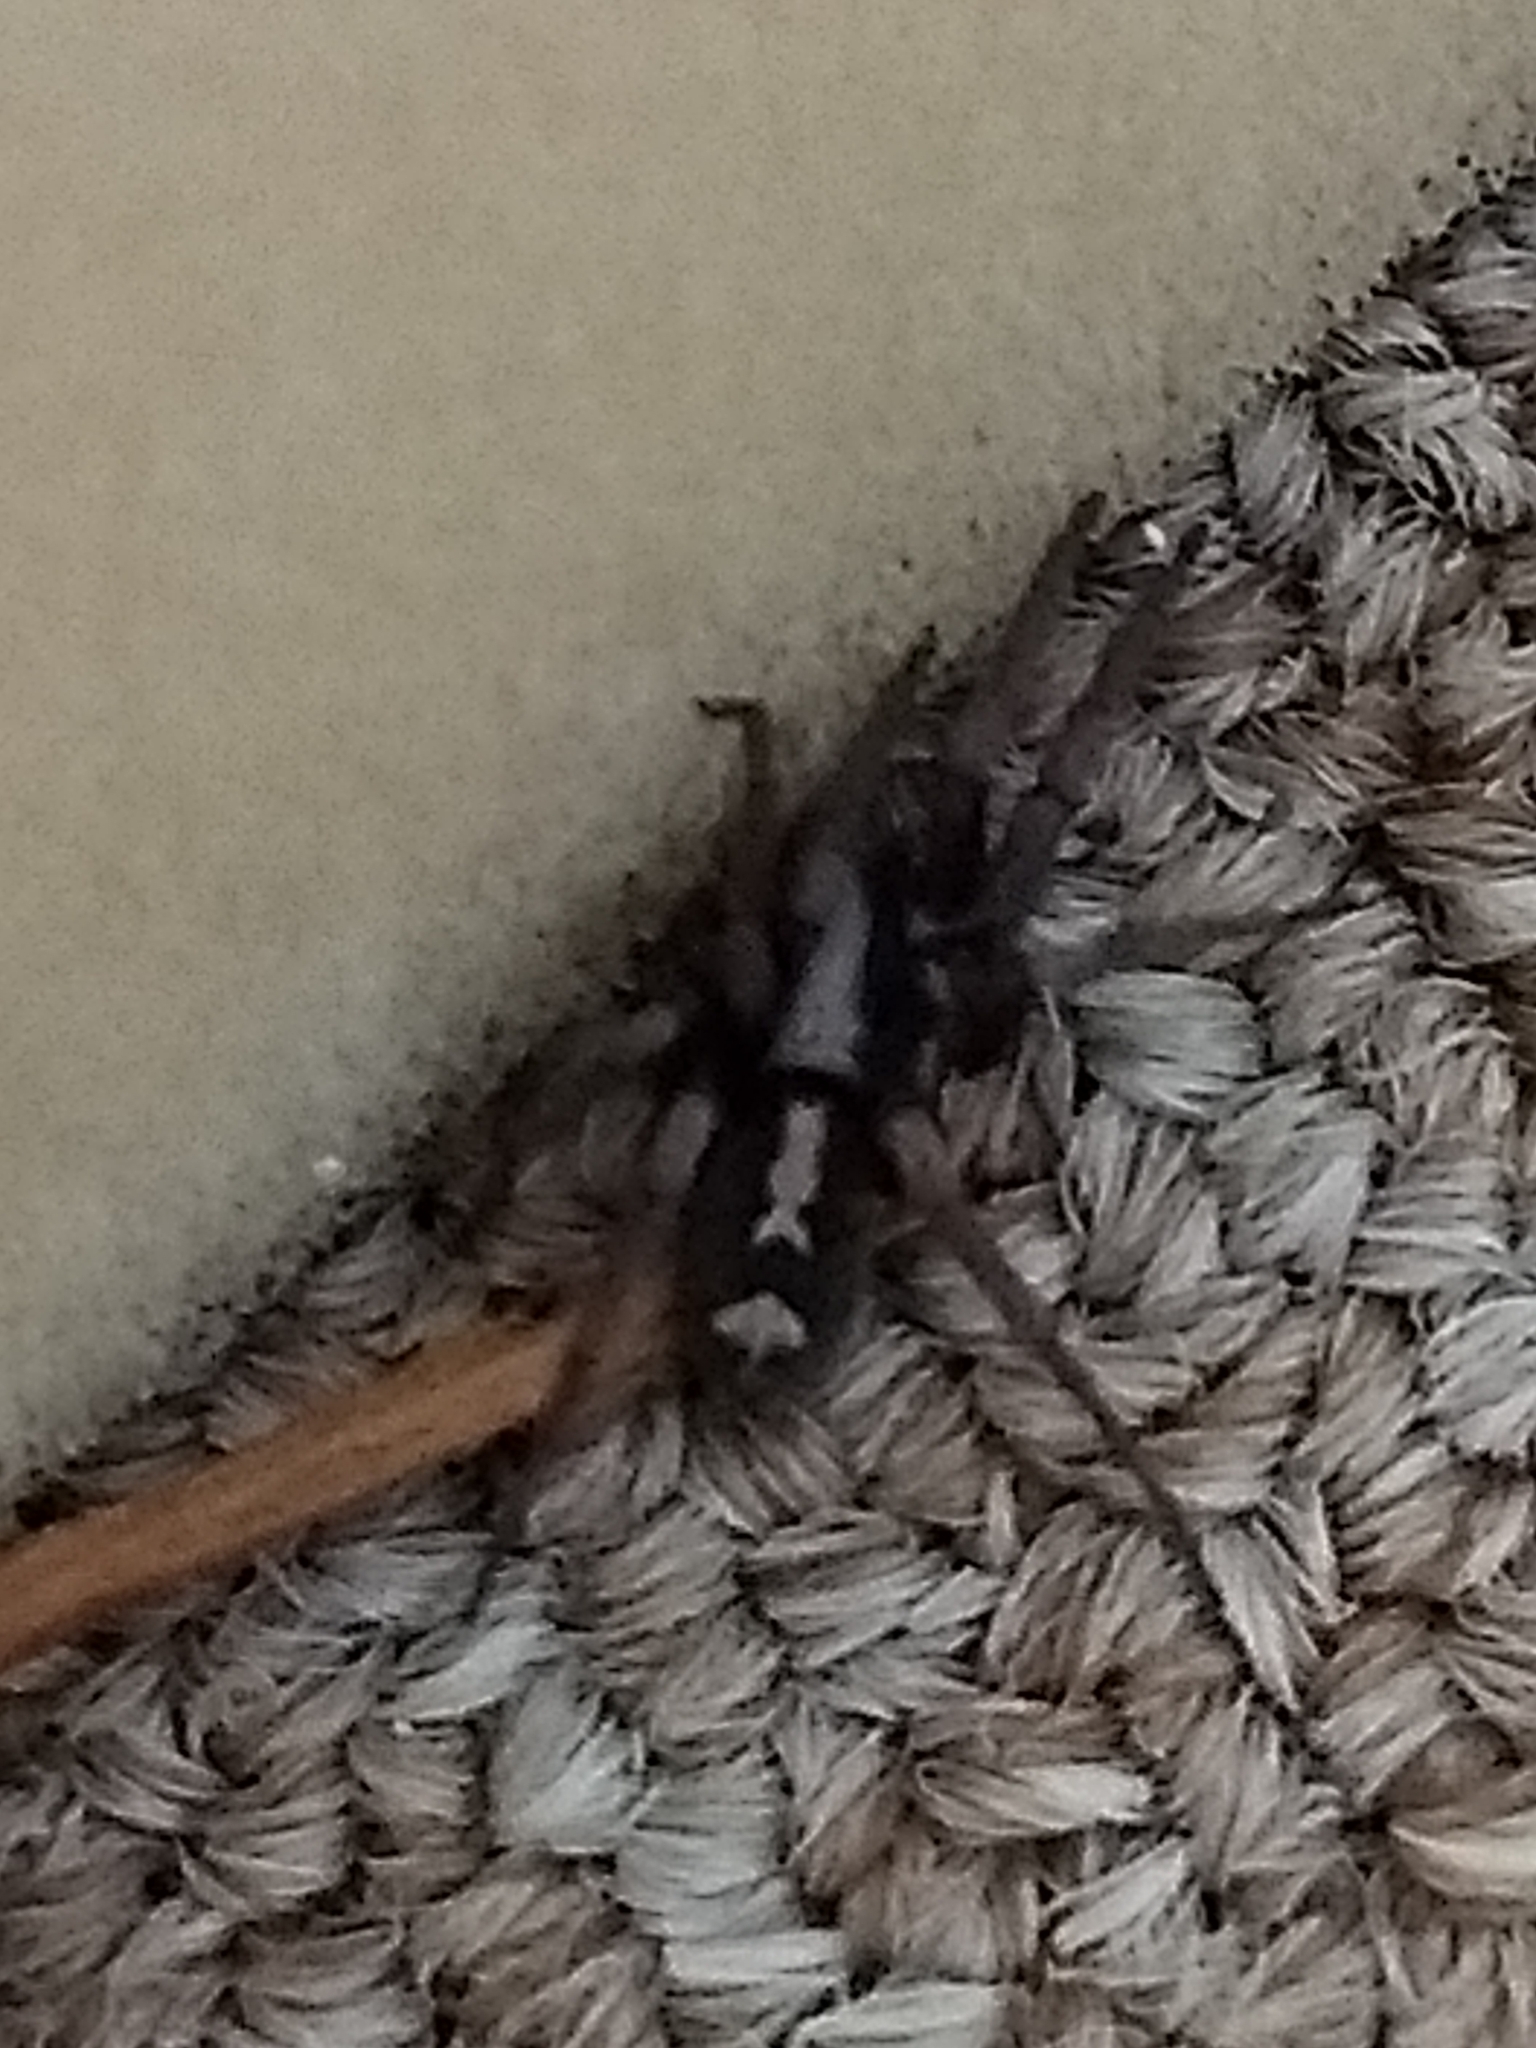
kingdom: Animalia
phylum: Arthropoda
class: Arachnida
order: Araneae
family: Gnaphosidae
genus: Herpyllus
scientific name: Herpyllus ecclesiasticus
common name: Eastern parson spider
